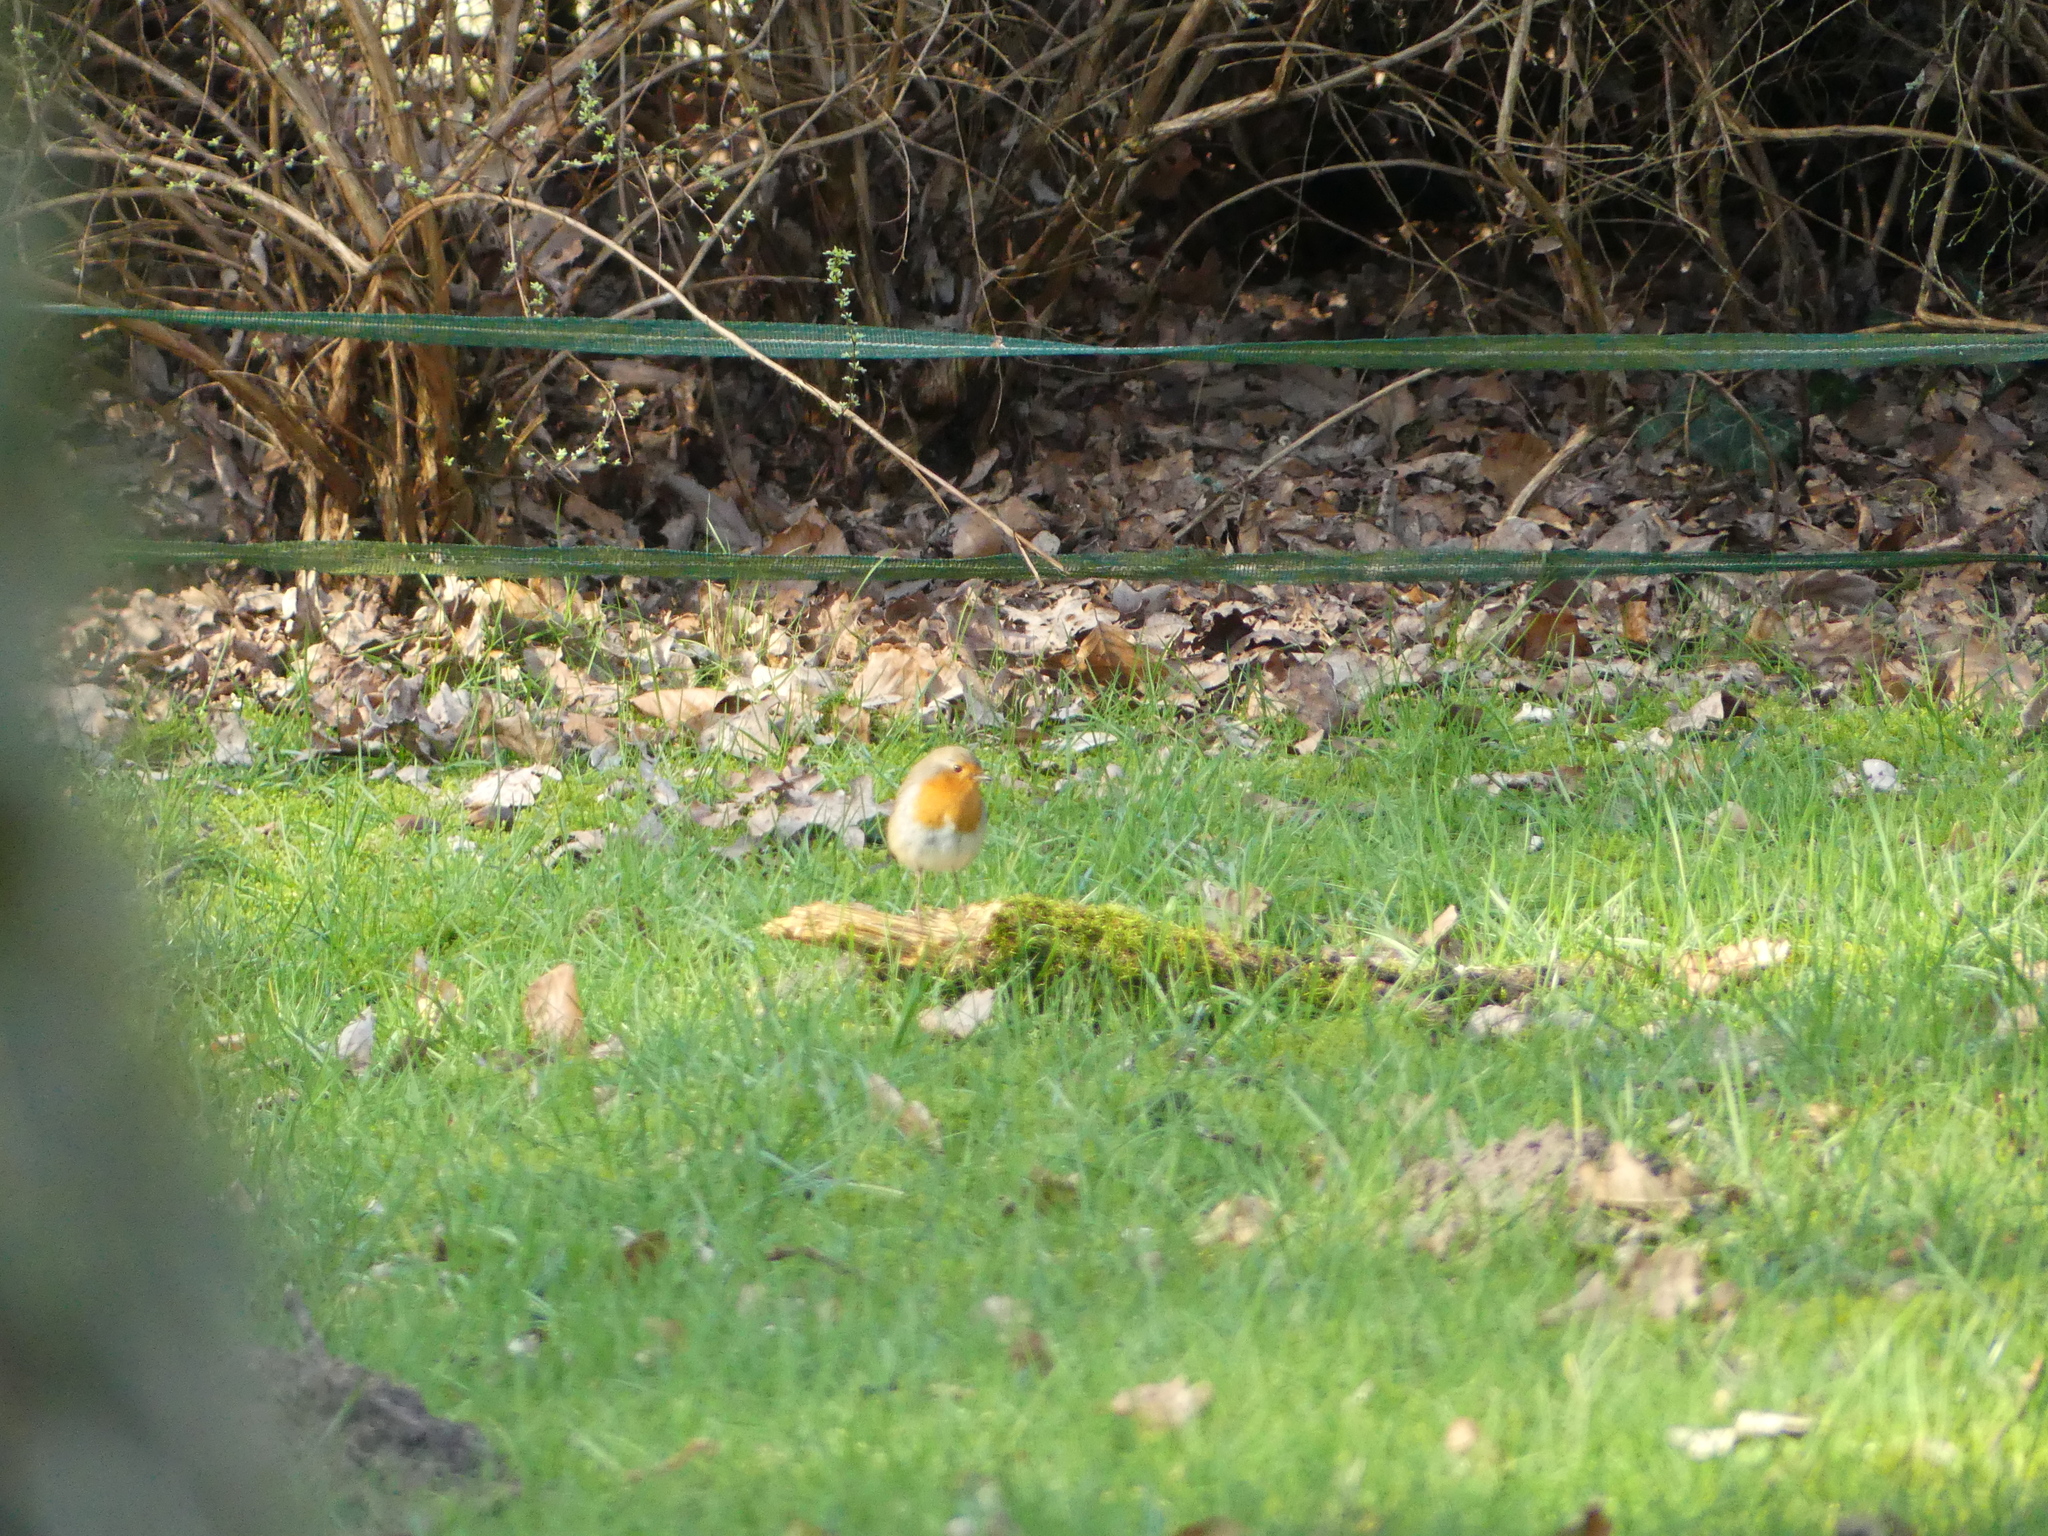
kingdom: Animalia
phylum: Chordata
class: Aves
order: Passeriformes
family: Muscicapidae
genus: Erithacus
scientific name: Erithacus rubecula
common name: European robin
